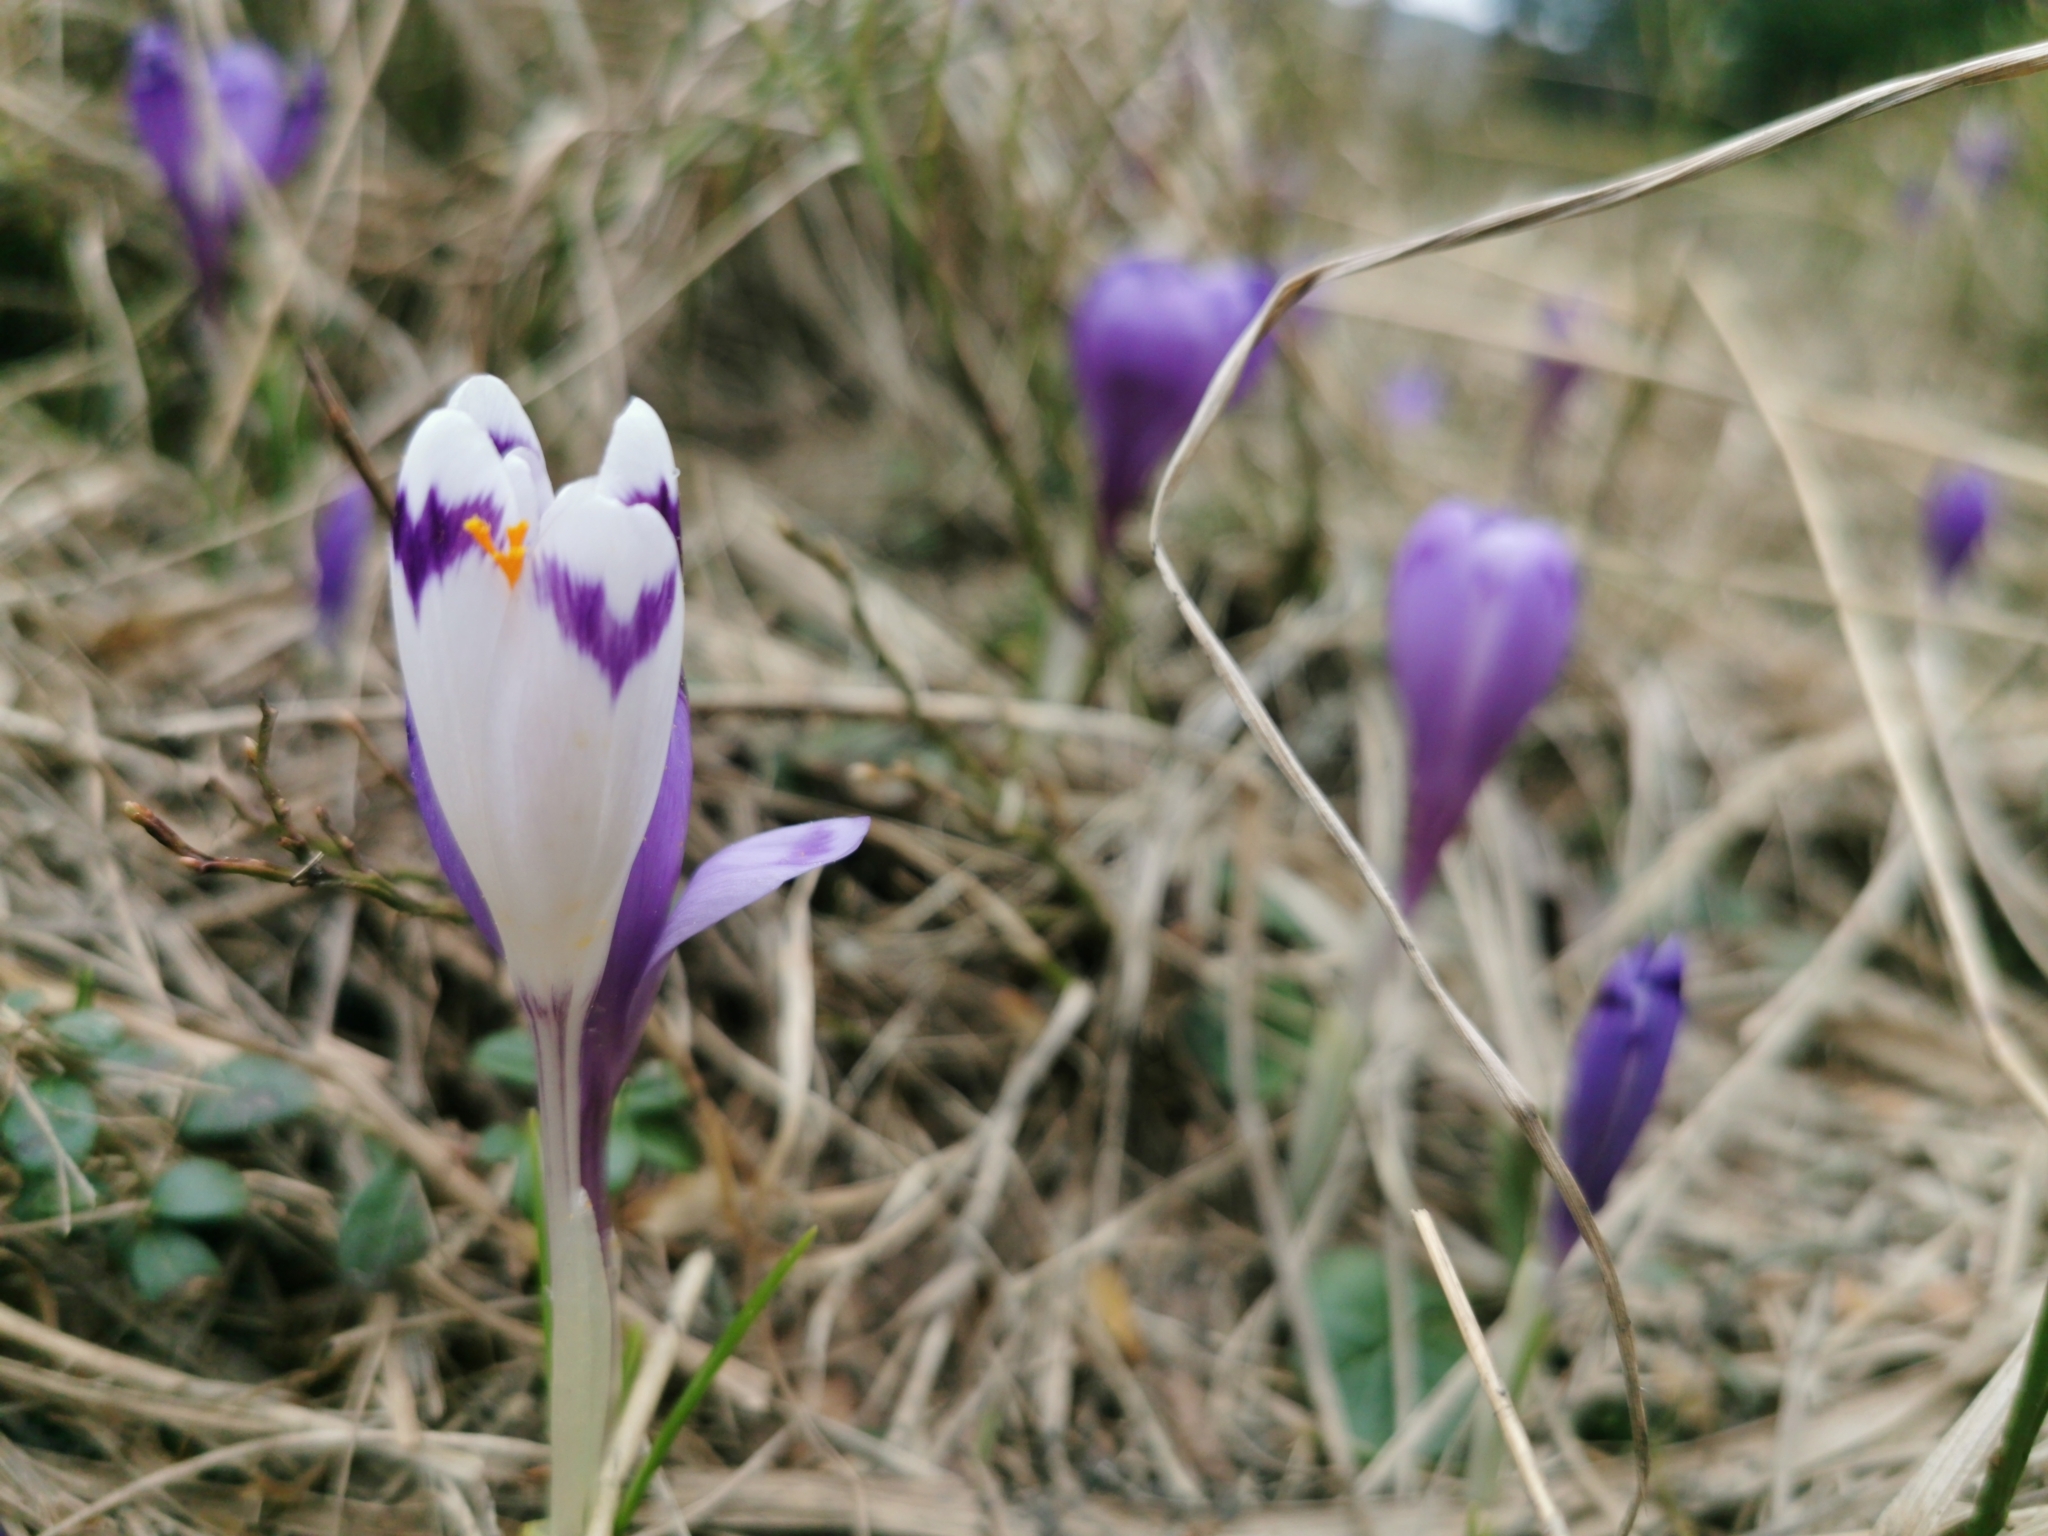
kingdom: Plantae
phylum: Tracheophyta
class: Liliopsida
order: Asparagales
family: Iridaceae
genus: Crocus
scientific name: Crocus heuffelianus
